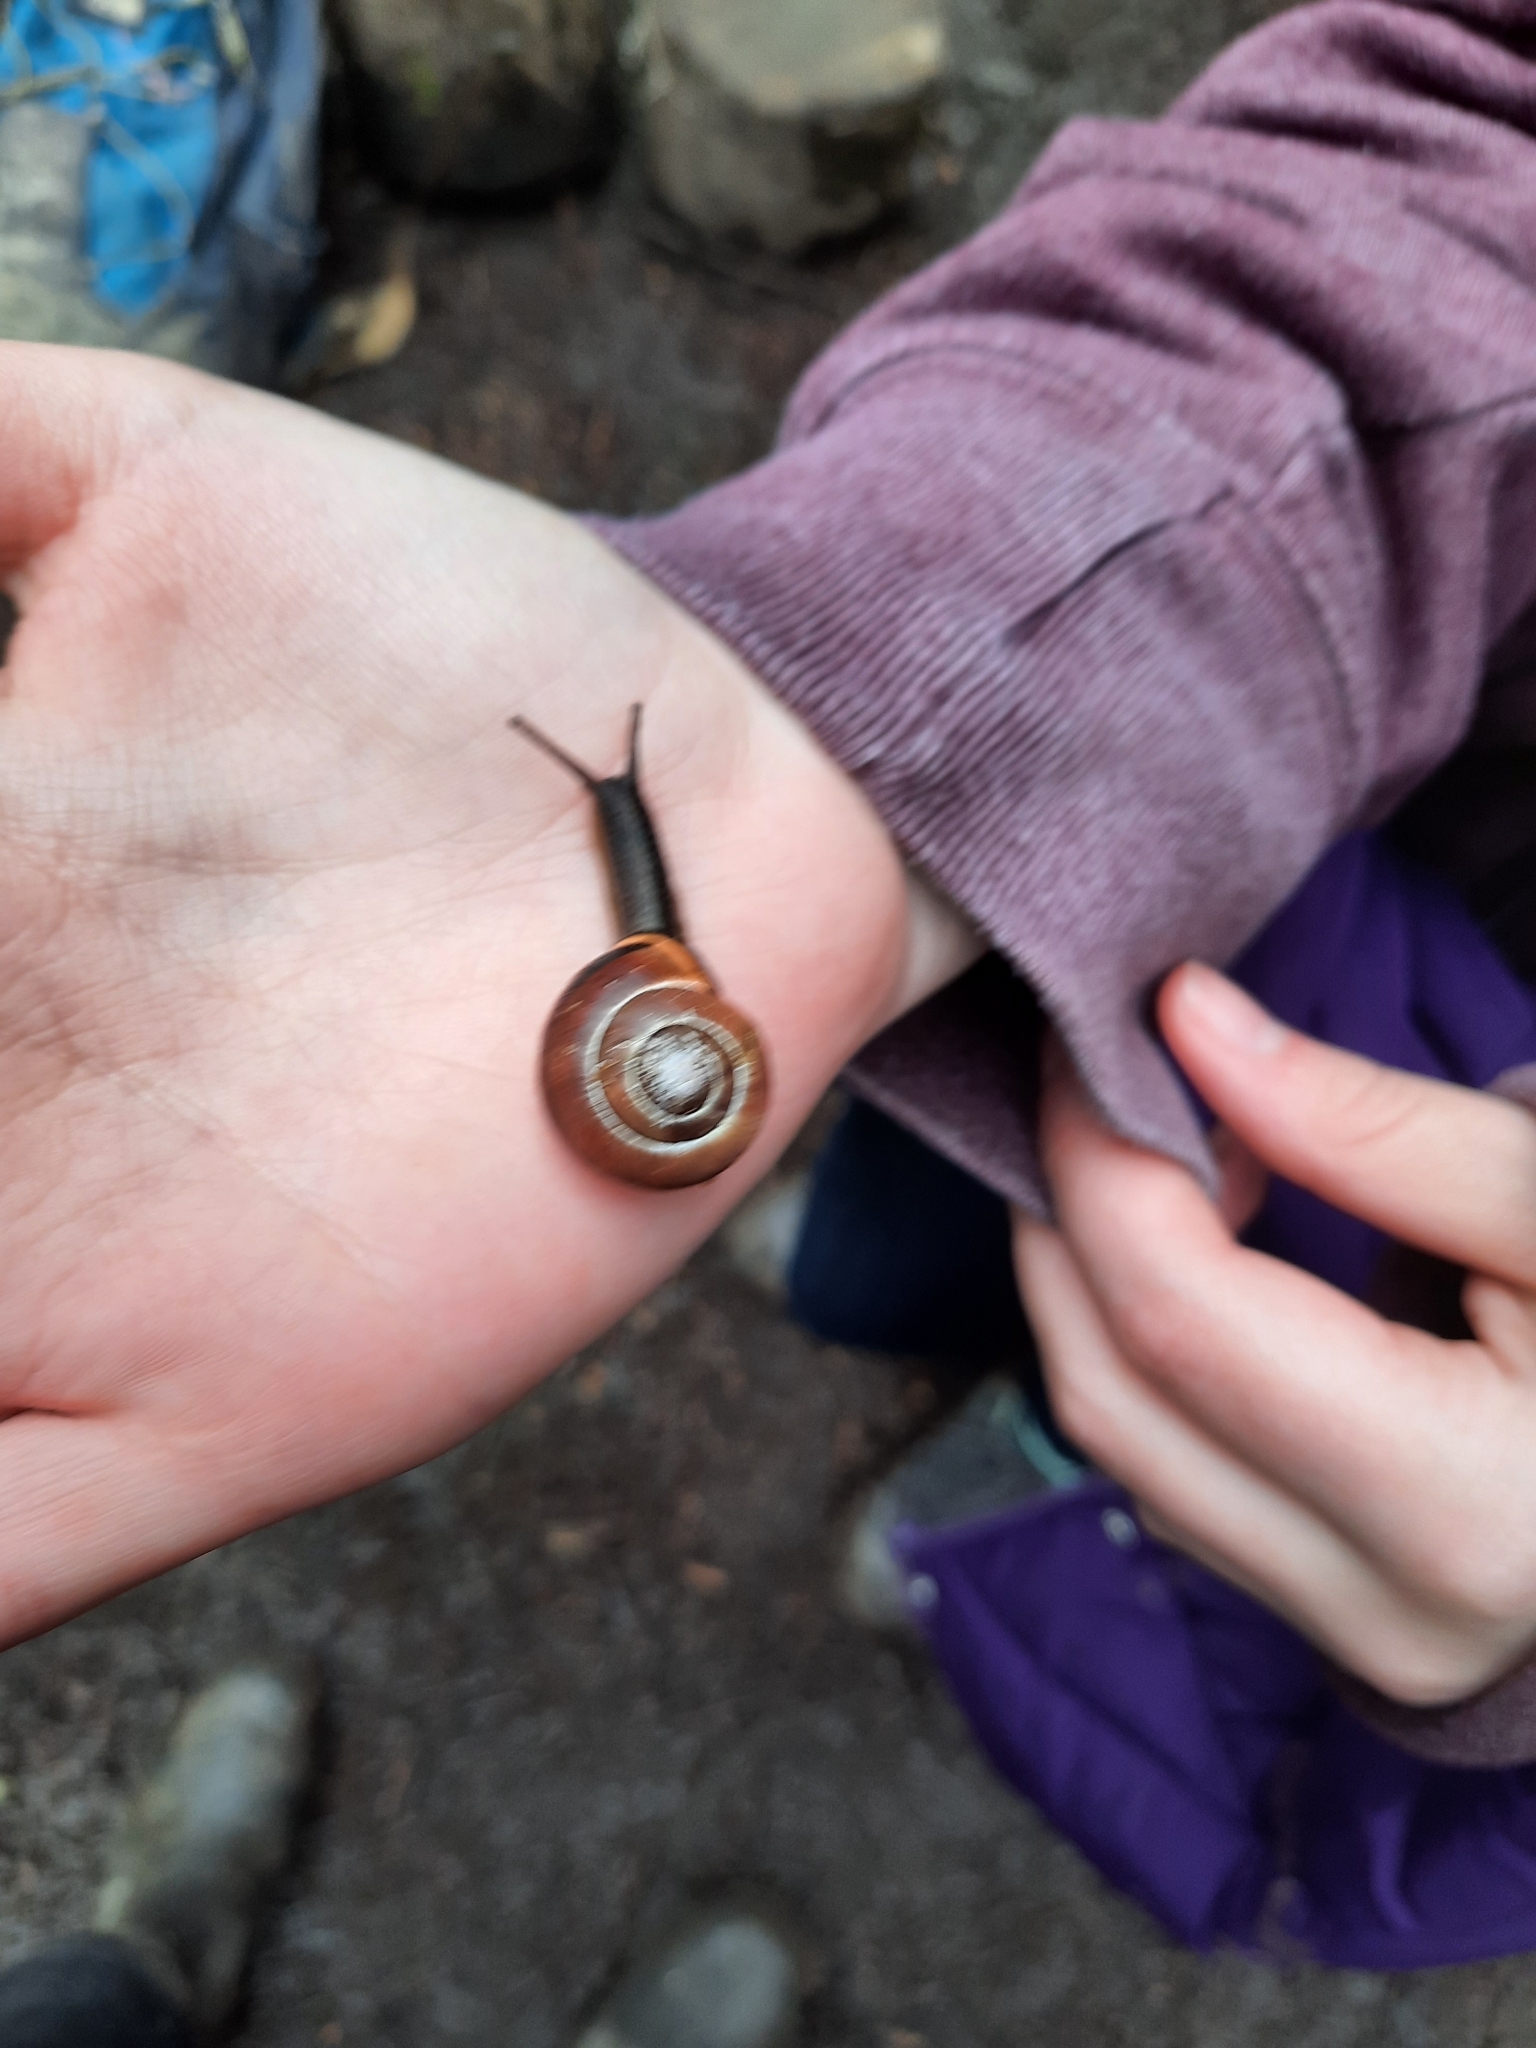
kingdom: Animalia
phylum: Mollusca
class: Gastropoda
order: Stylommatophora
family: Helicidae
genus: Cepaea
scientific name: Cepaea nemoralis
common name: Grovesnail
